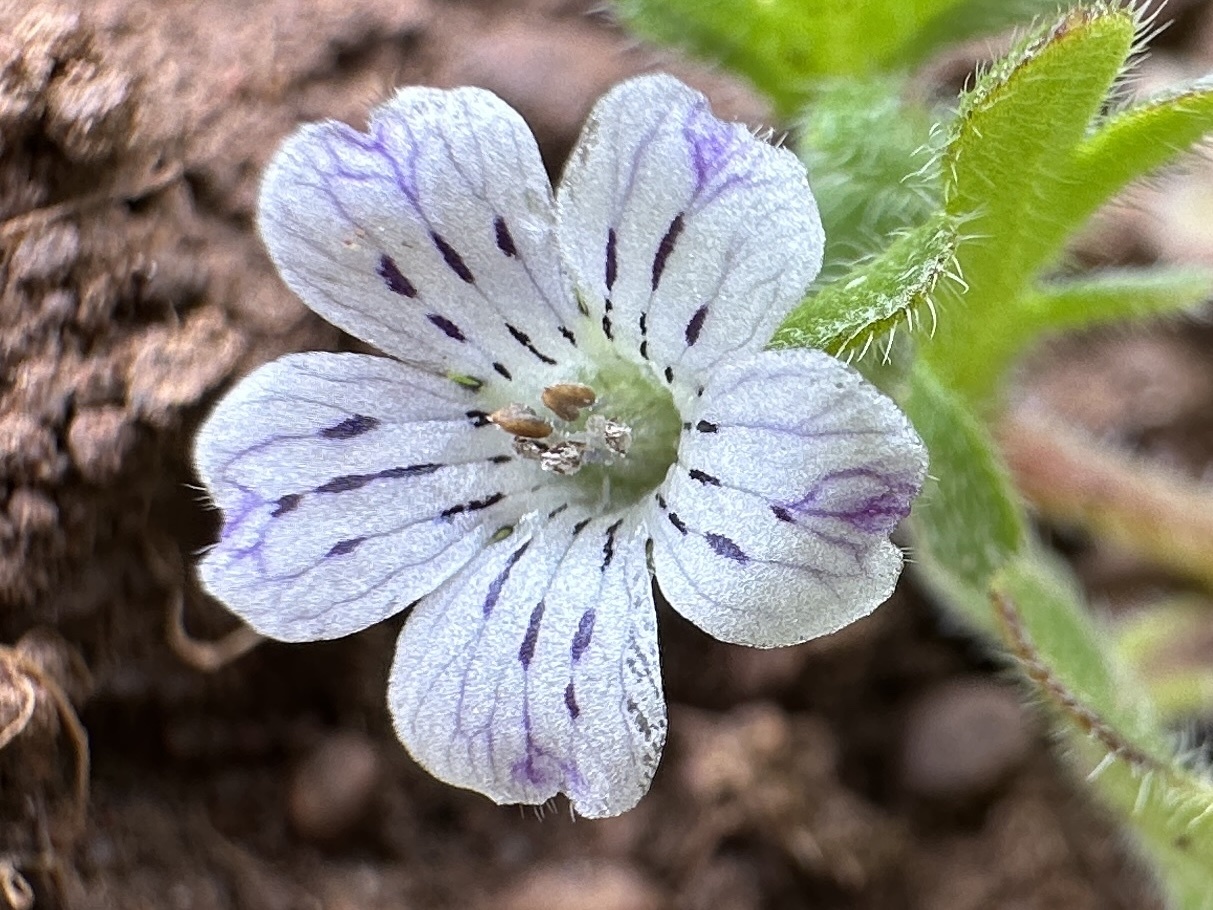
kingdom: Plantae
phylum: Tracheophyta
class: Magnoliopsida
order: Boraginales
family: Hydrophyllaceae
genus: Nemophila
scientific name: Nemophila pedunculata
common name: Little-foot baby-blue-eyes
